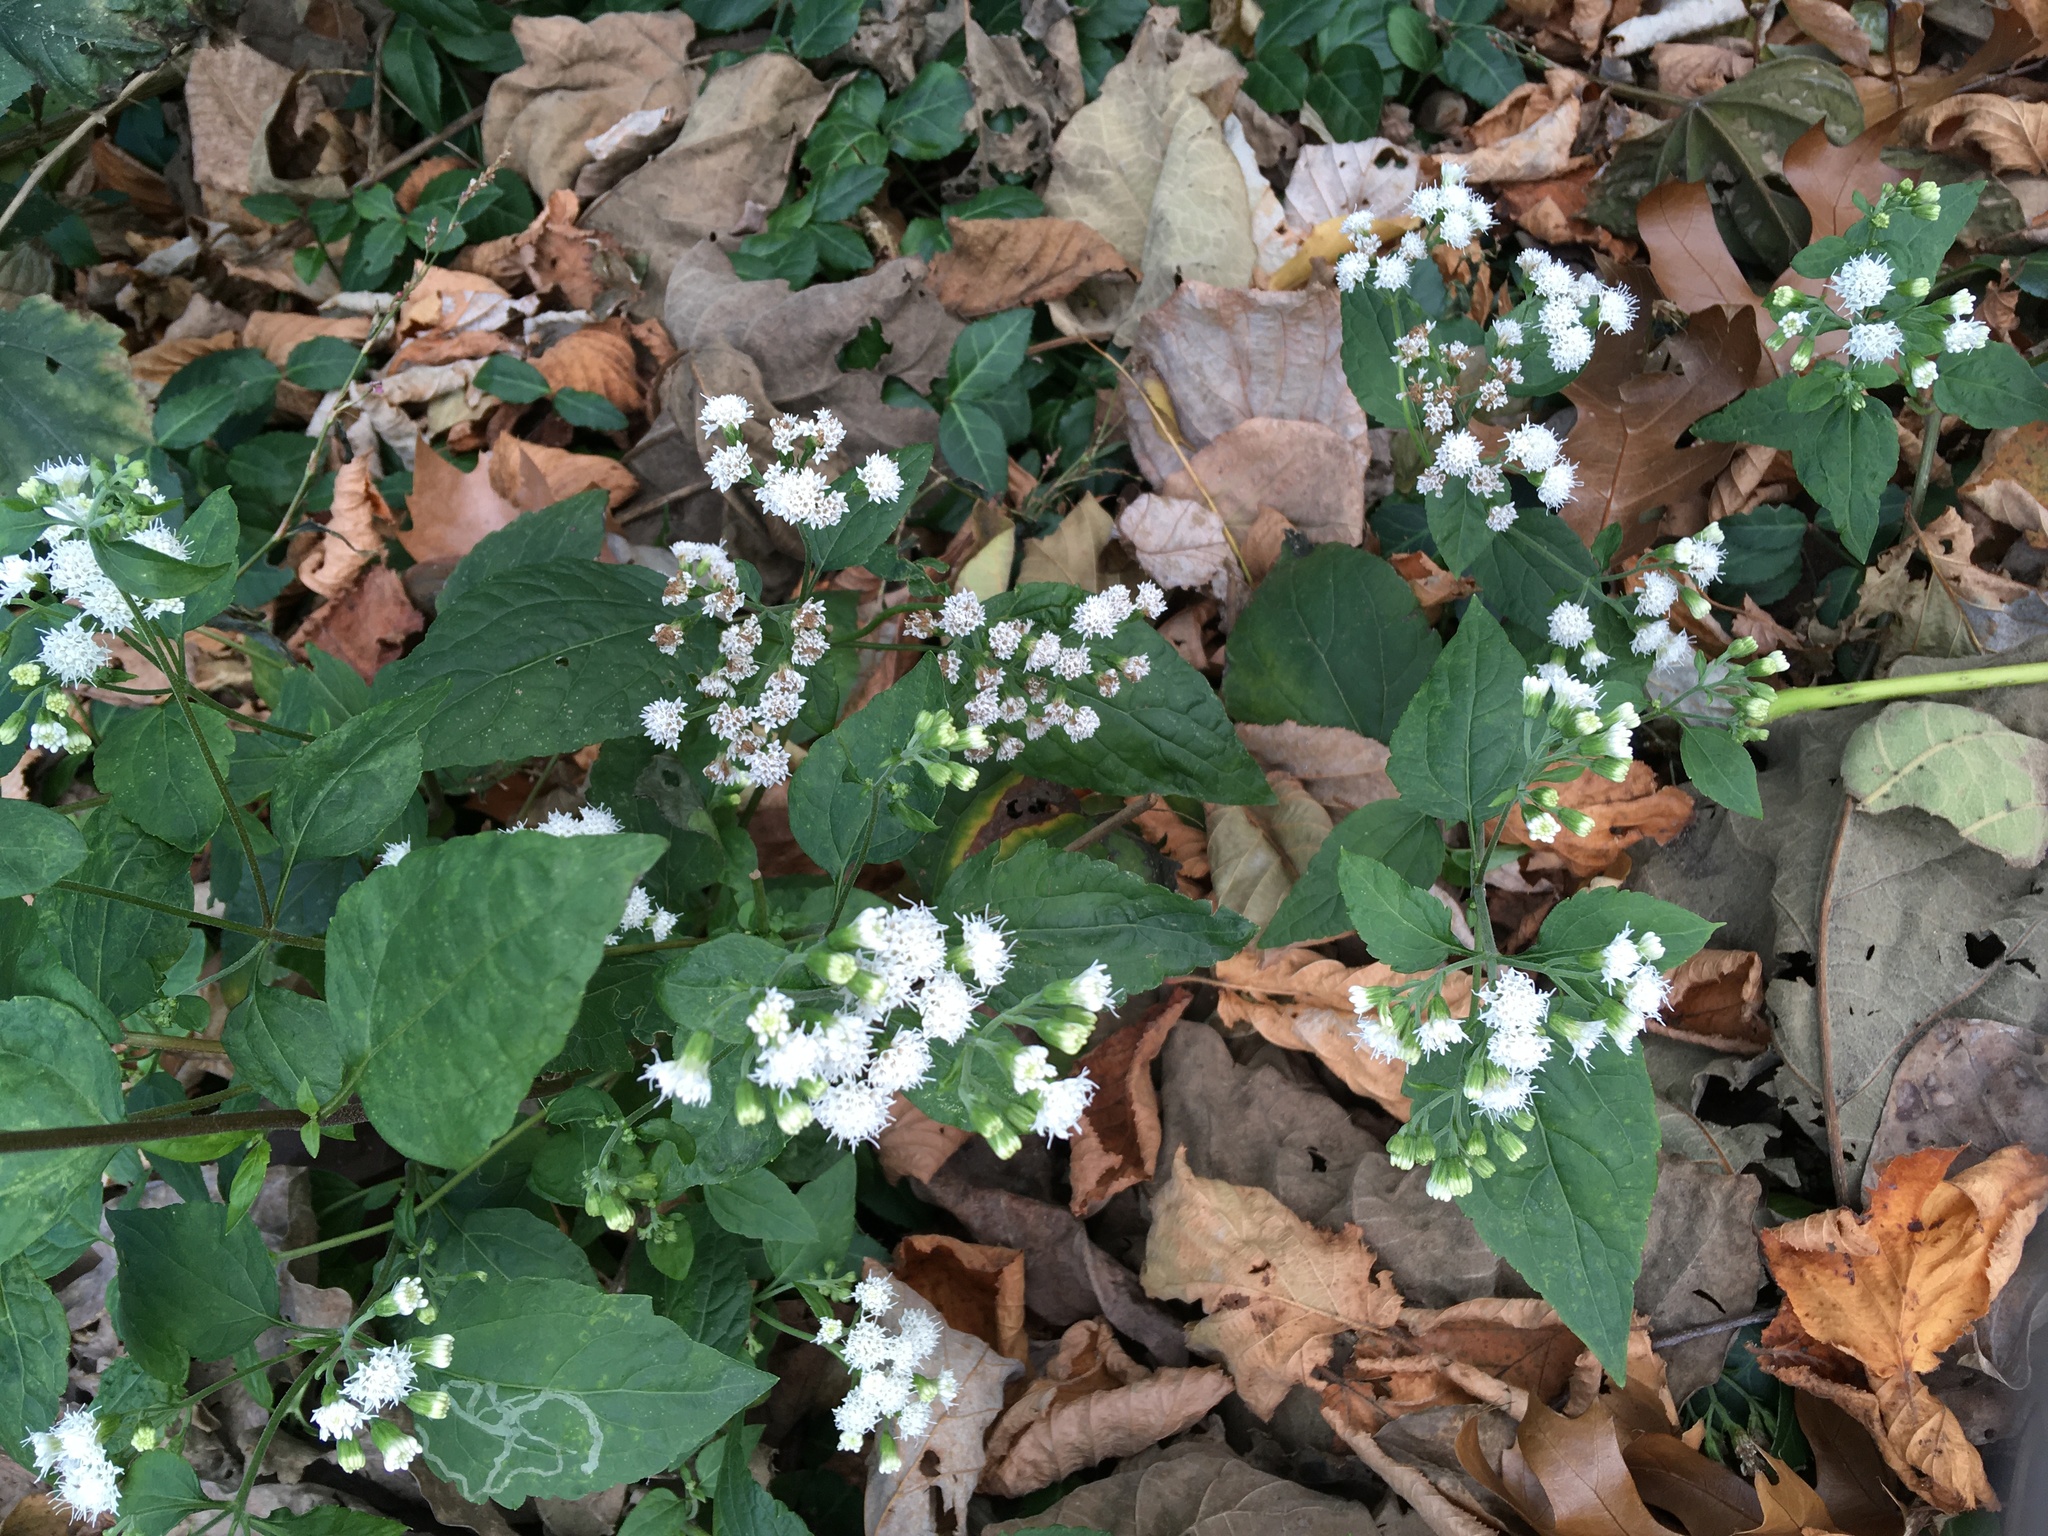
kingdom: Plantae
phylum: Tracheophyta
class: Magnoliopsida
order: Asterales
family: Asteraceae
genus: Ageratina
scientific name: Ageratina altissima
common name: White snakeroot
